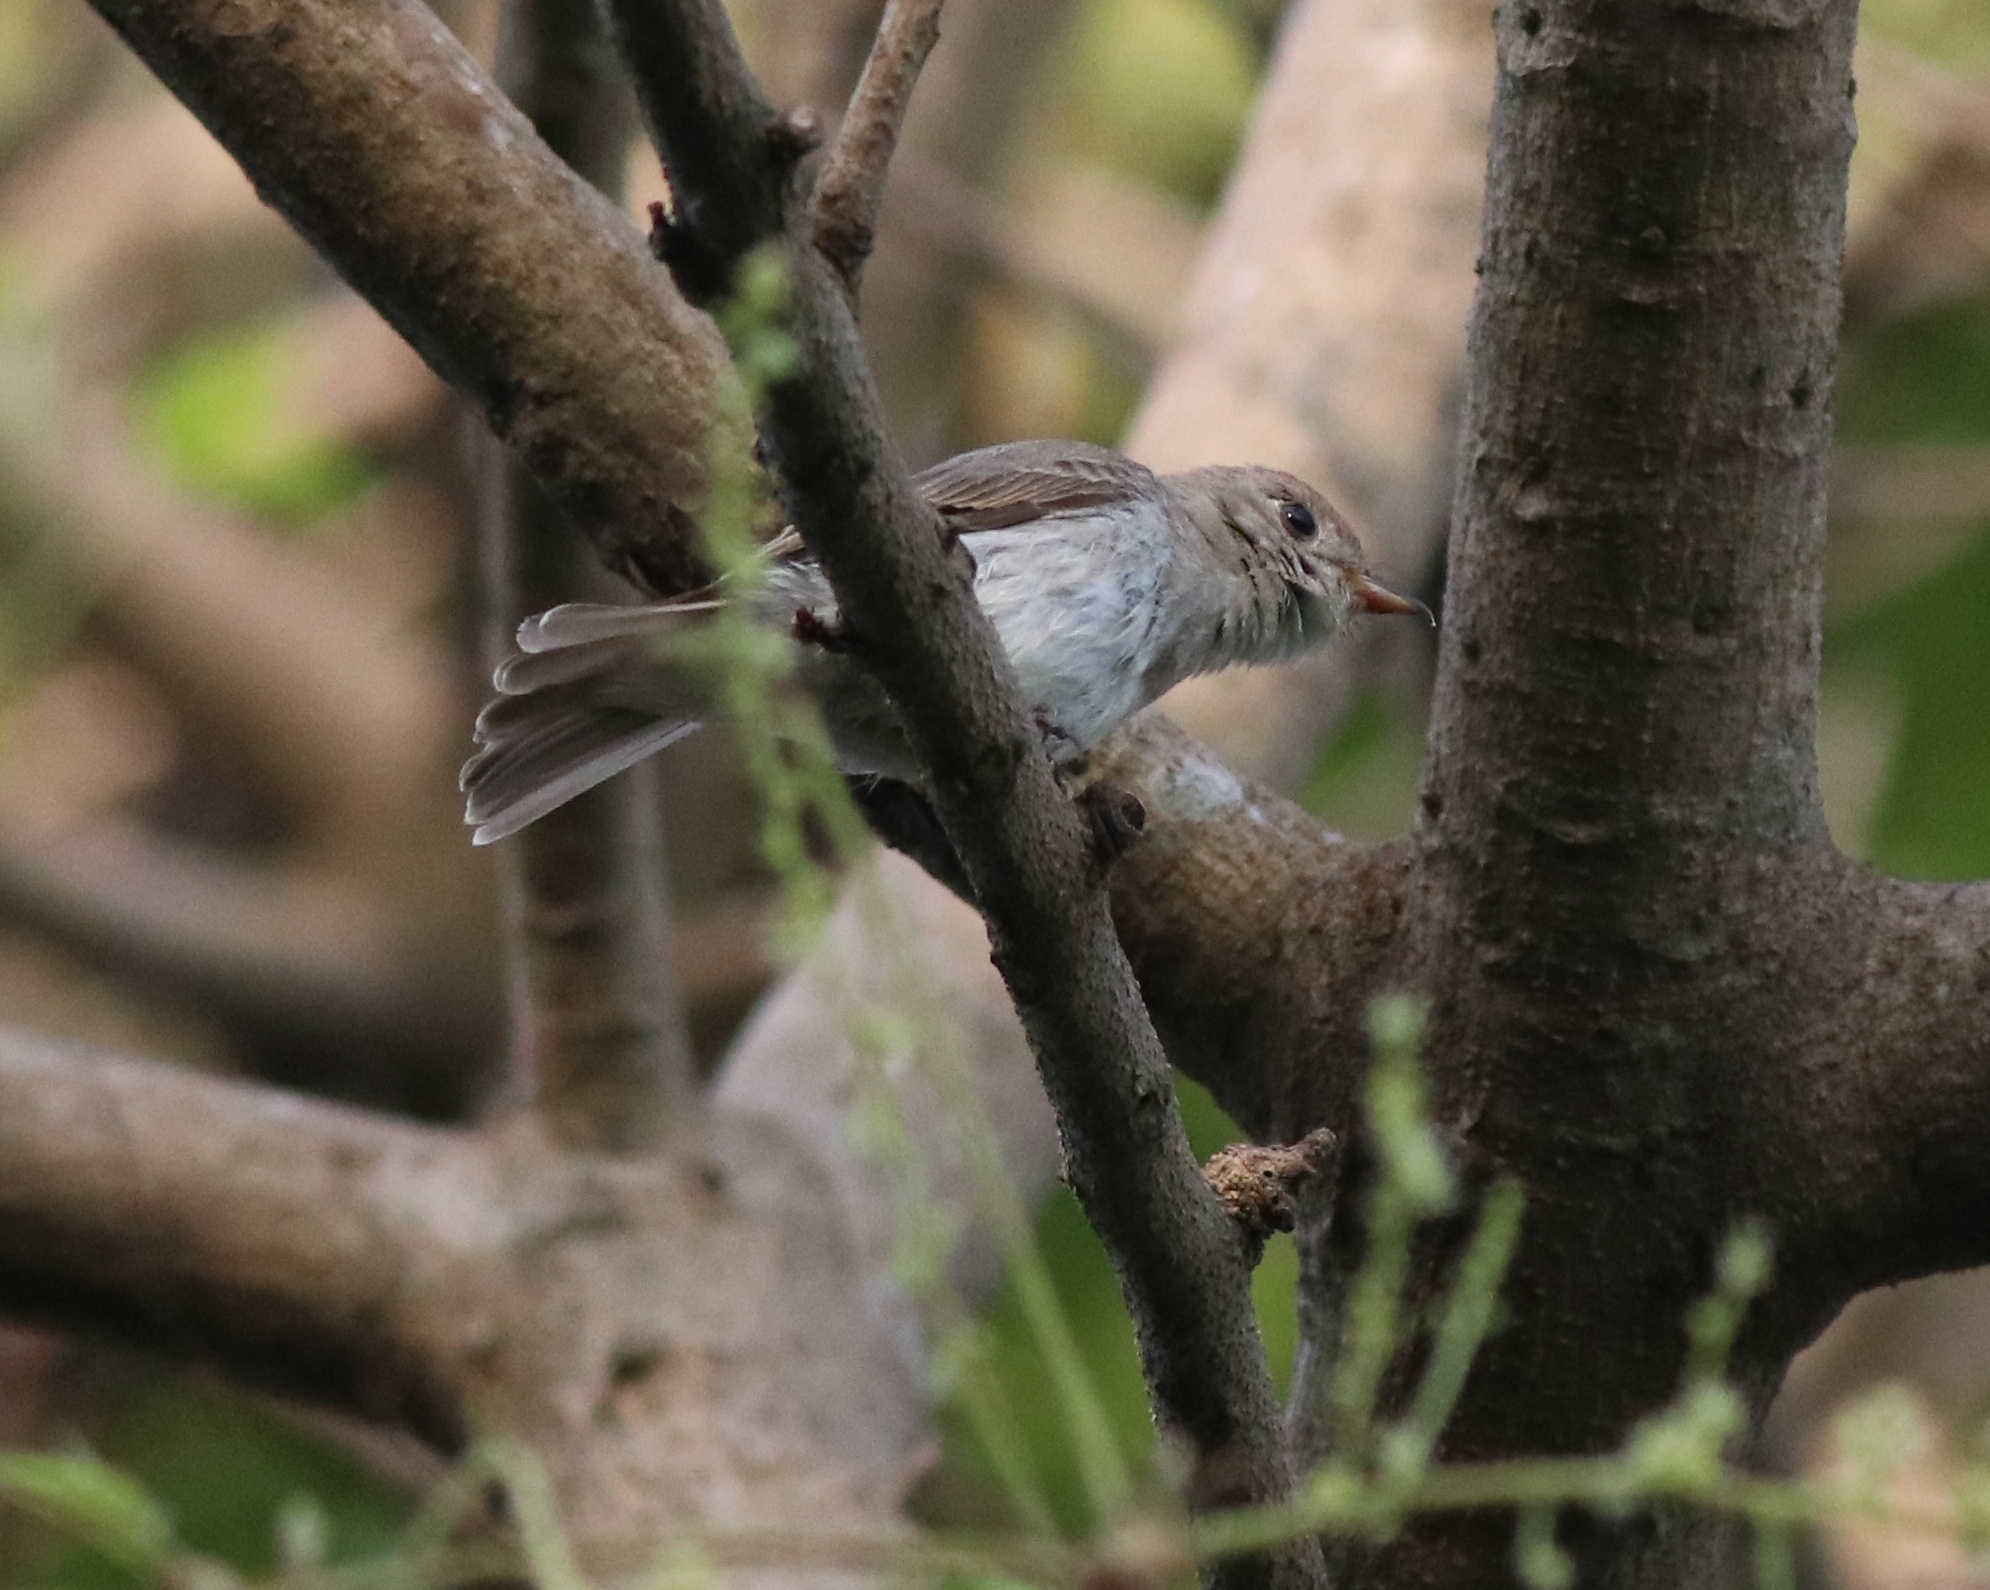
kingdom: Animalia
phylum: Chordata
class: Aves
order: Passeriformes
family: Muscicapidae
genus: Muscicapa
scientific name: Muscicapa latirostris
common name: Asian brown flycatcher
